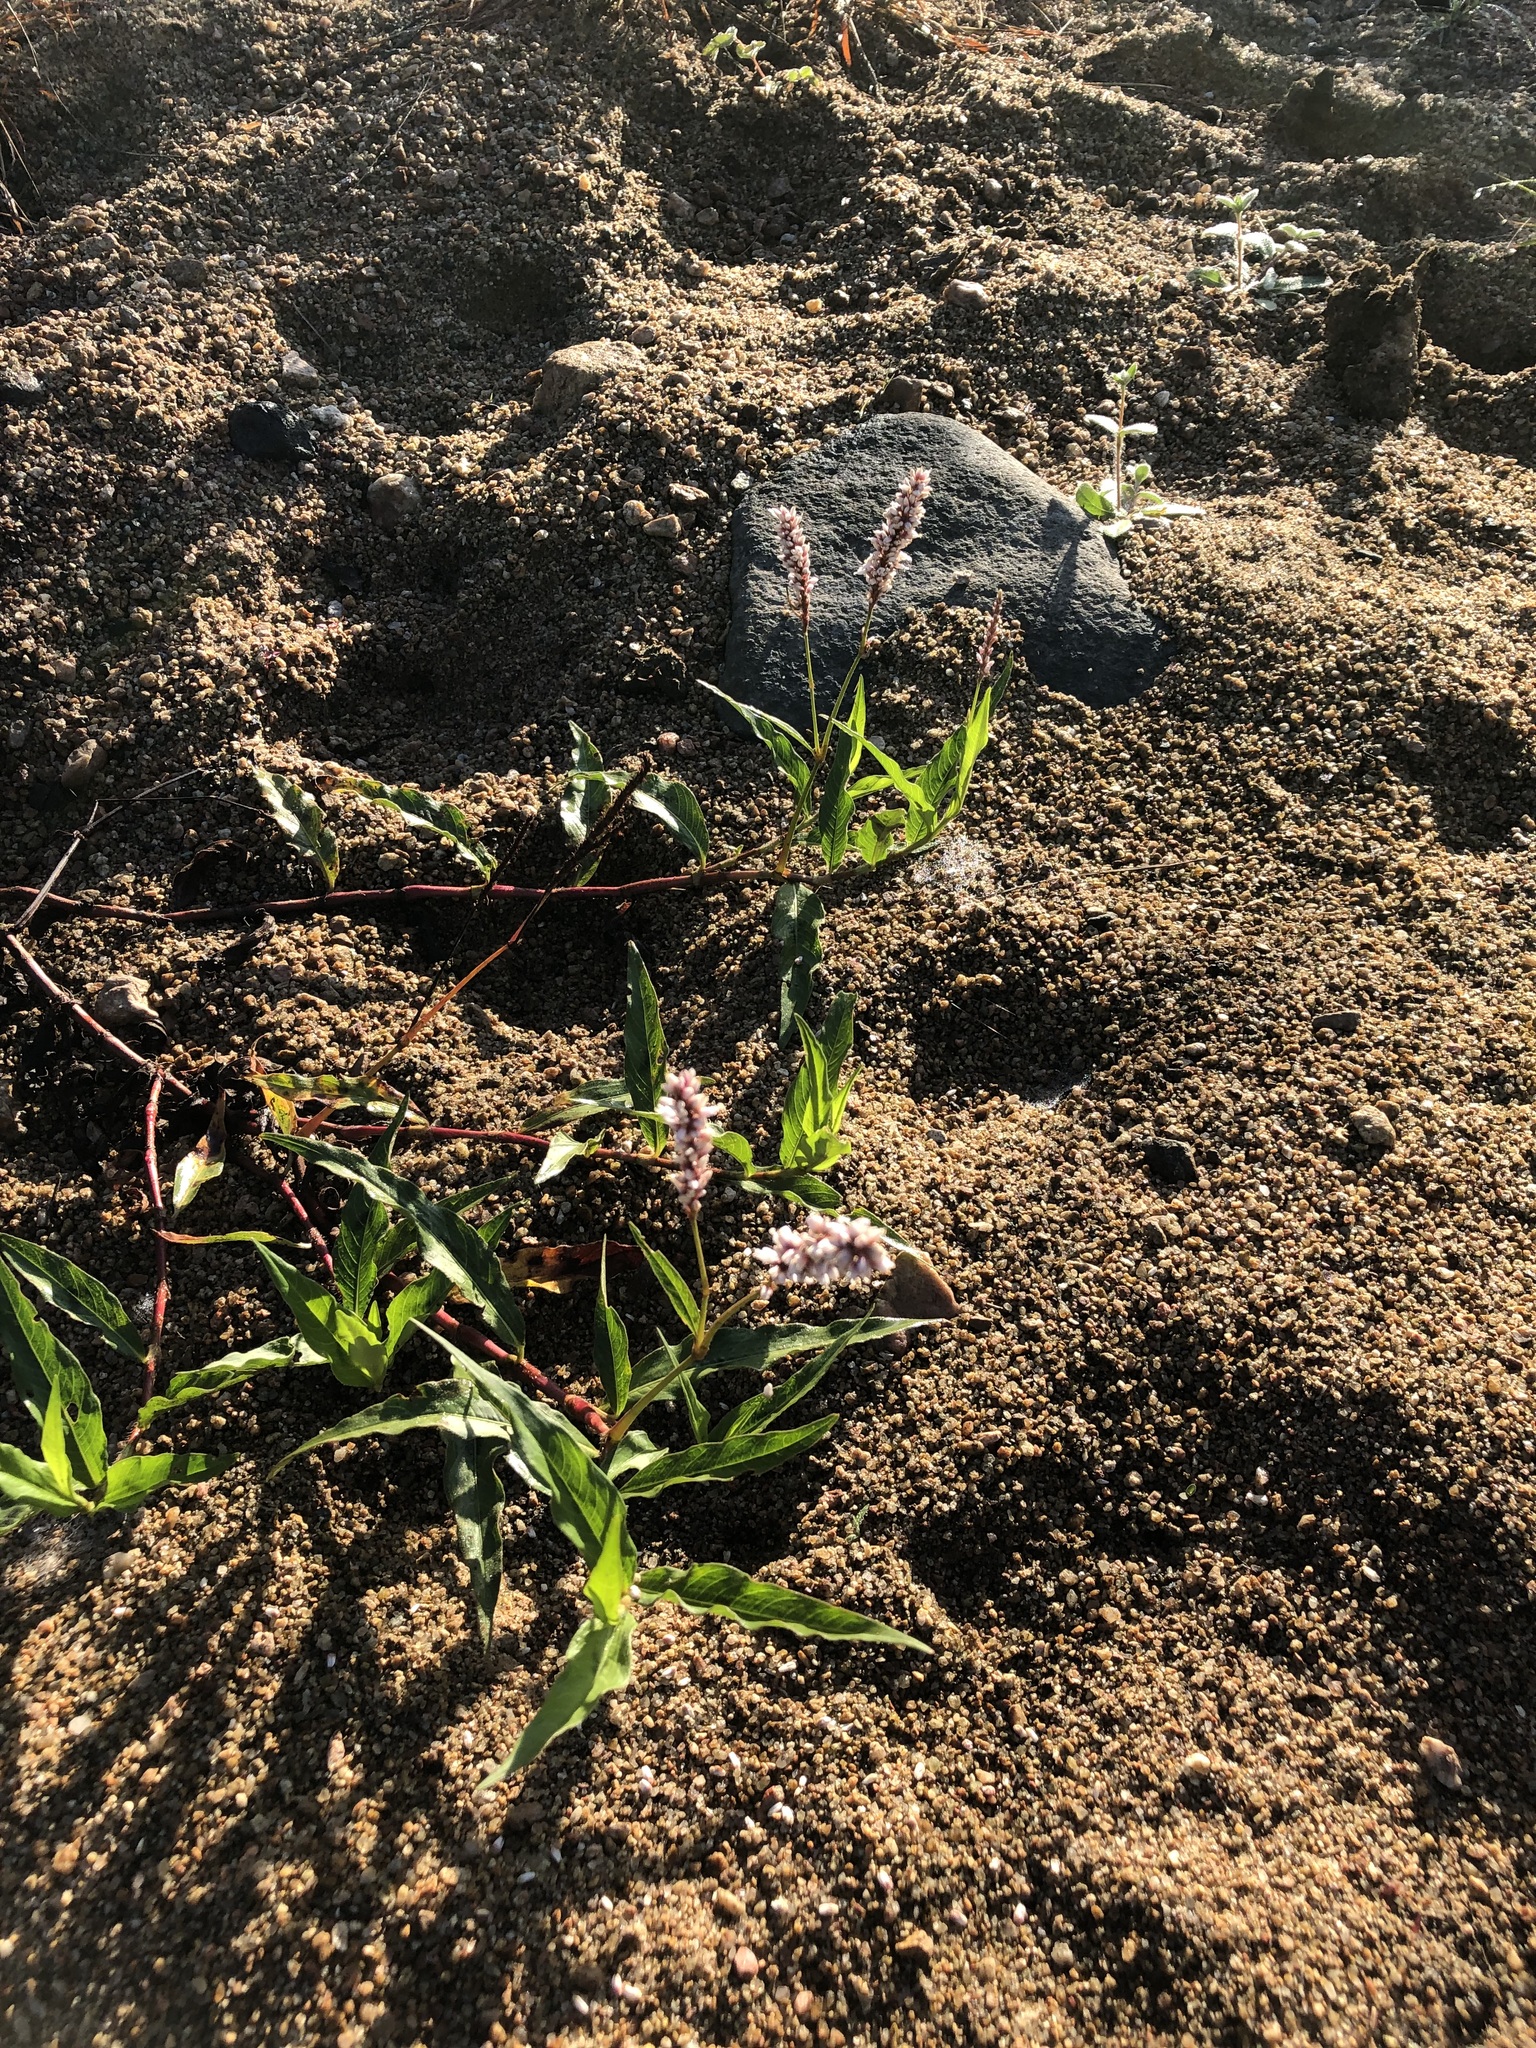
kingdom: Plantae
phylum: Tracheophyta
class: Magnoliopsida
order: Caryophyllales
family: Polygonaceae
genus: Persicaria
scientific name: Persicaria senegalensis
